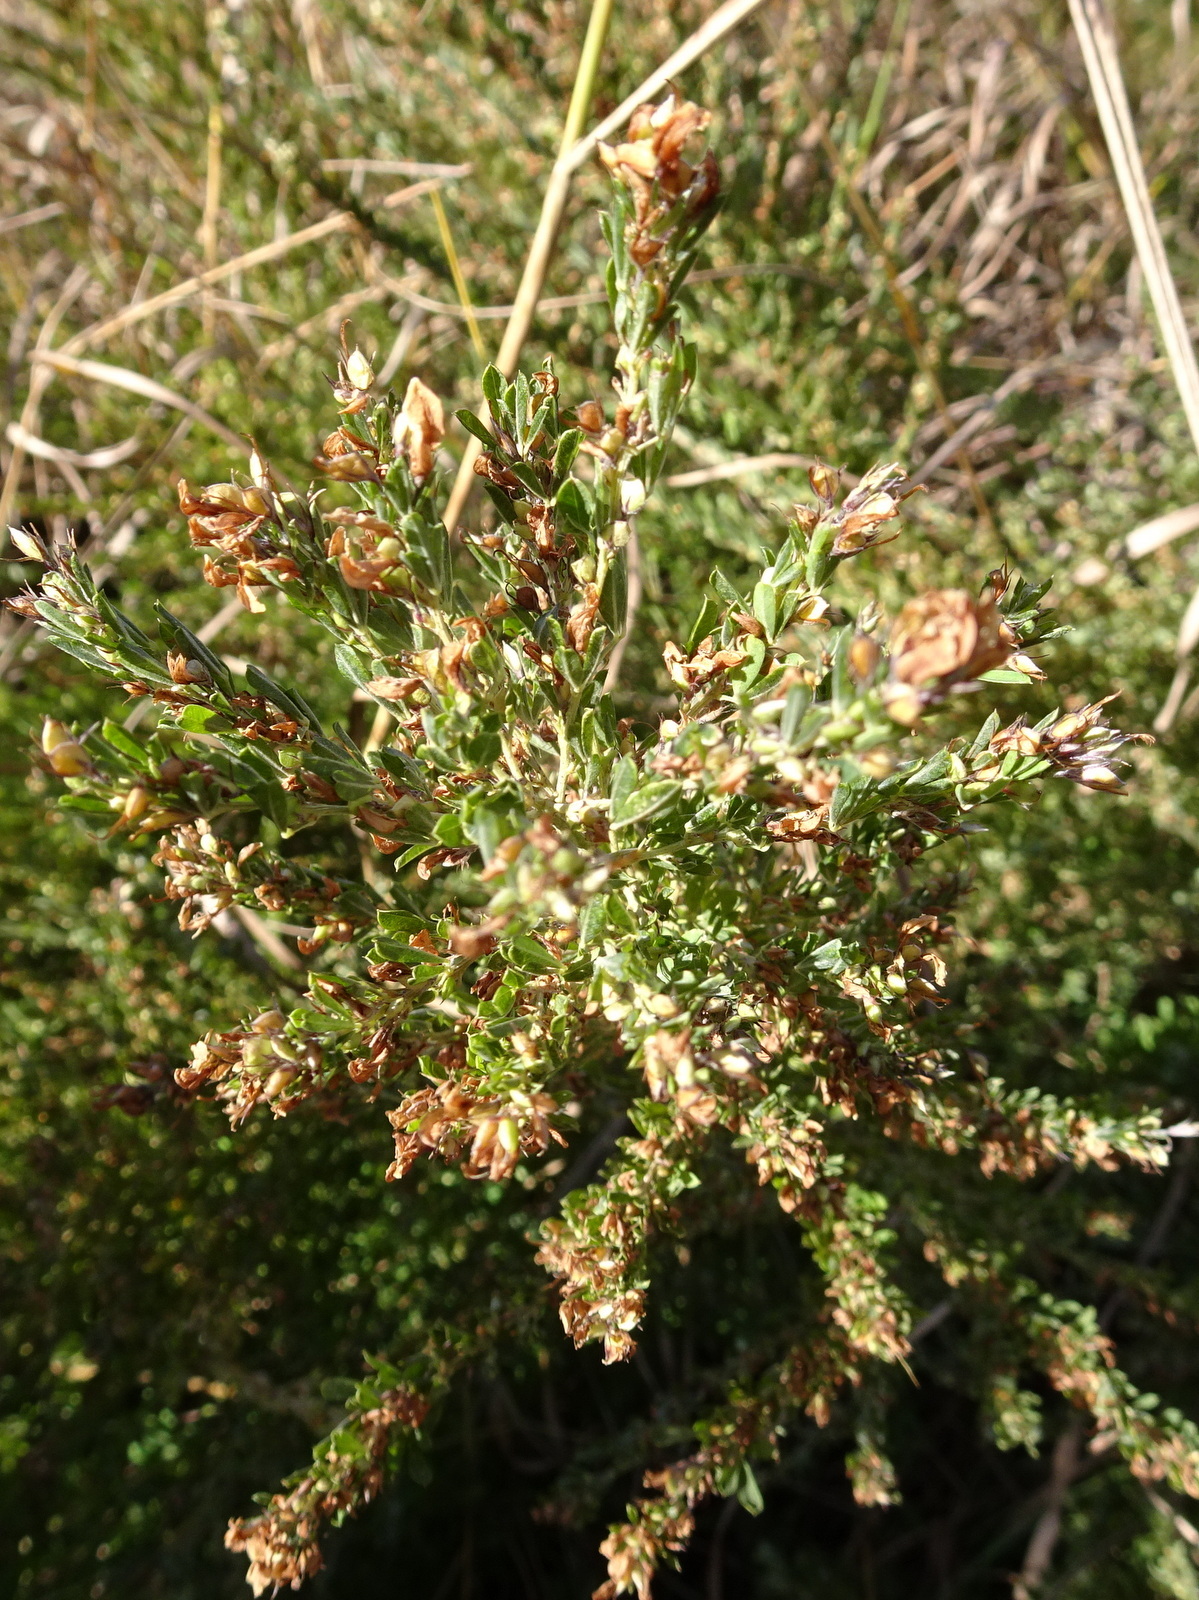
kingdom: Plantae
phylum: Tracheophyta
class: Magnoliopsida
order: Fabales
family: Fabaceae
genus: Lespedeza
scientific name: Lespedeza cuneata
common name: Chinese bush-clover
